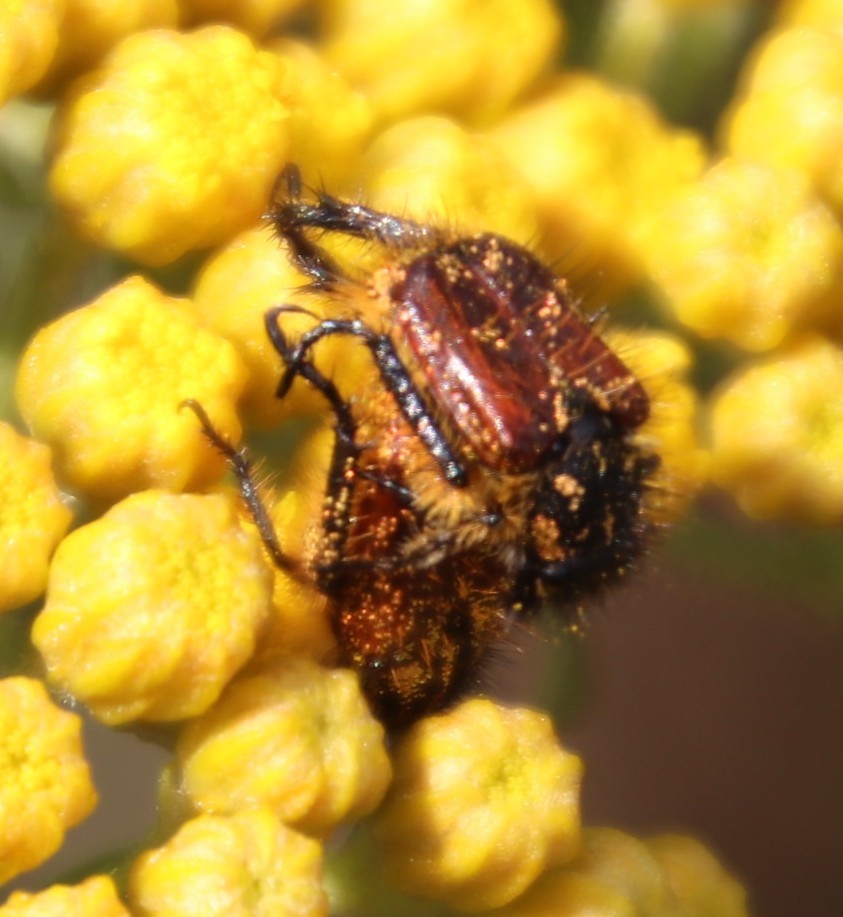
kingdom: Plantae
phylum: Tracheophyta
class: Magnoliopsida
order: Asterales
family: Asteraceae
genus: Inulanthera
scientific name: Inulanthera dregeana
